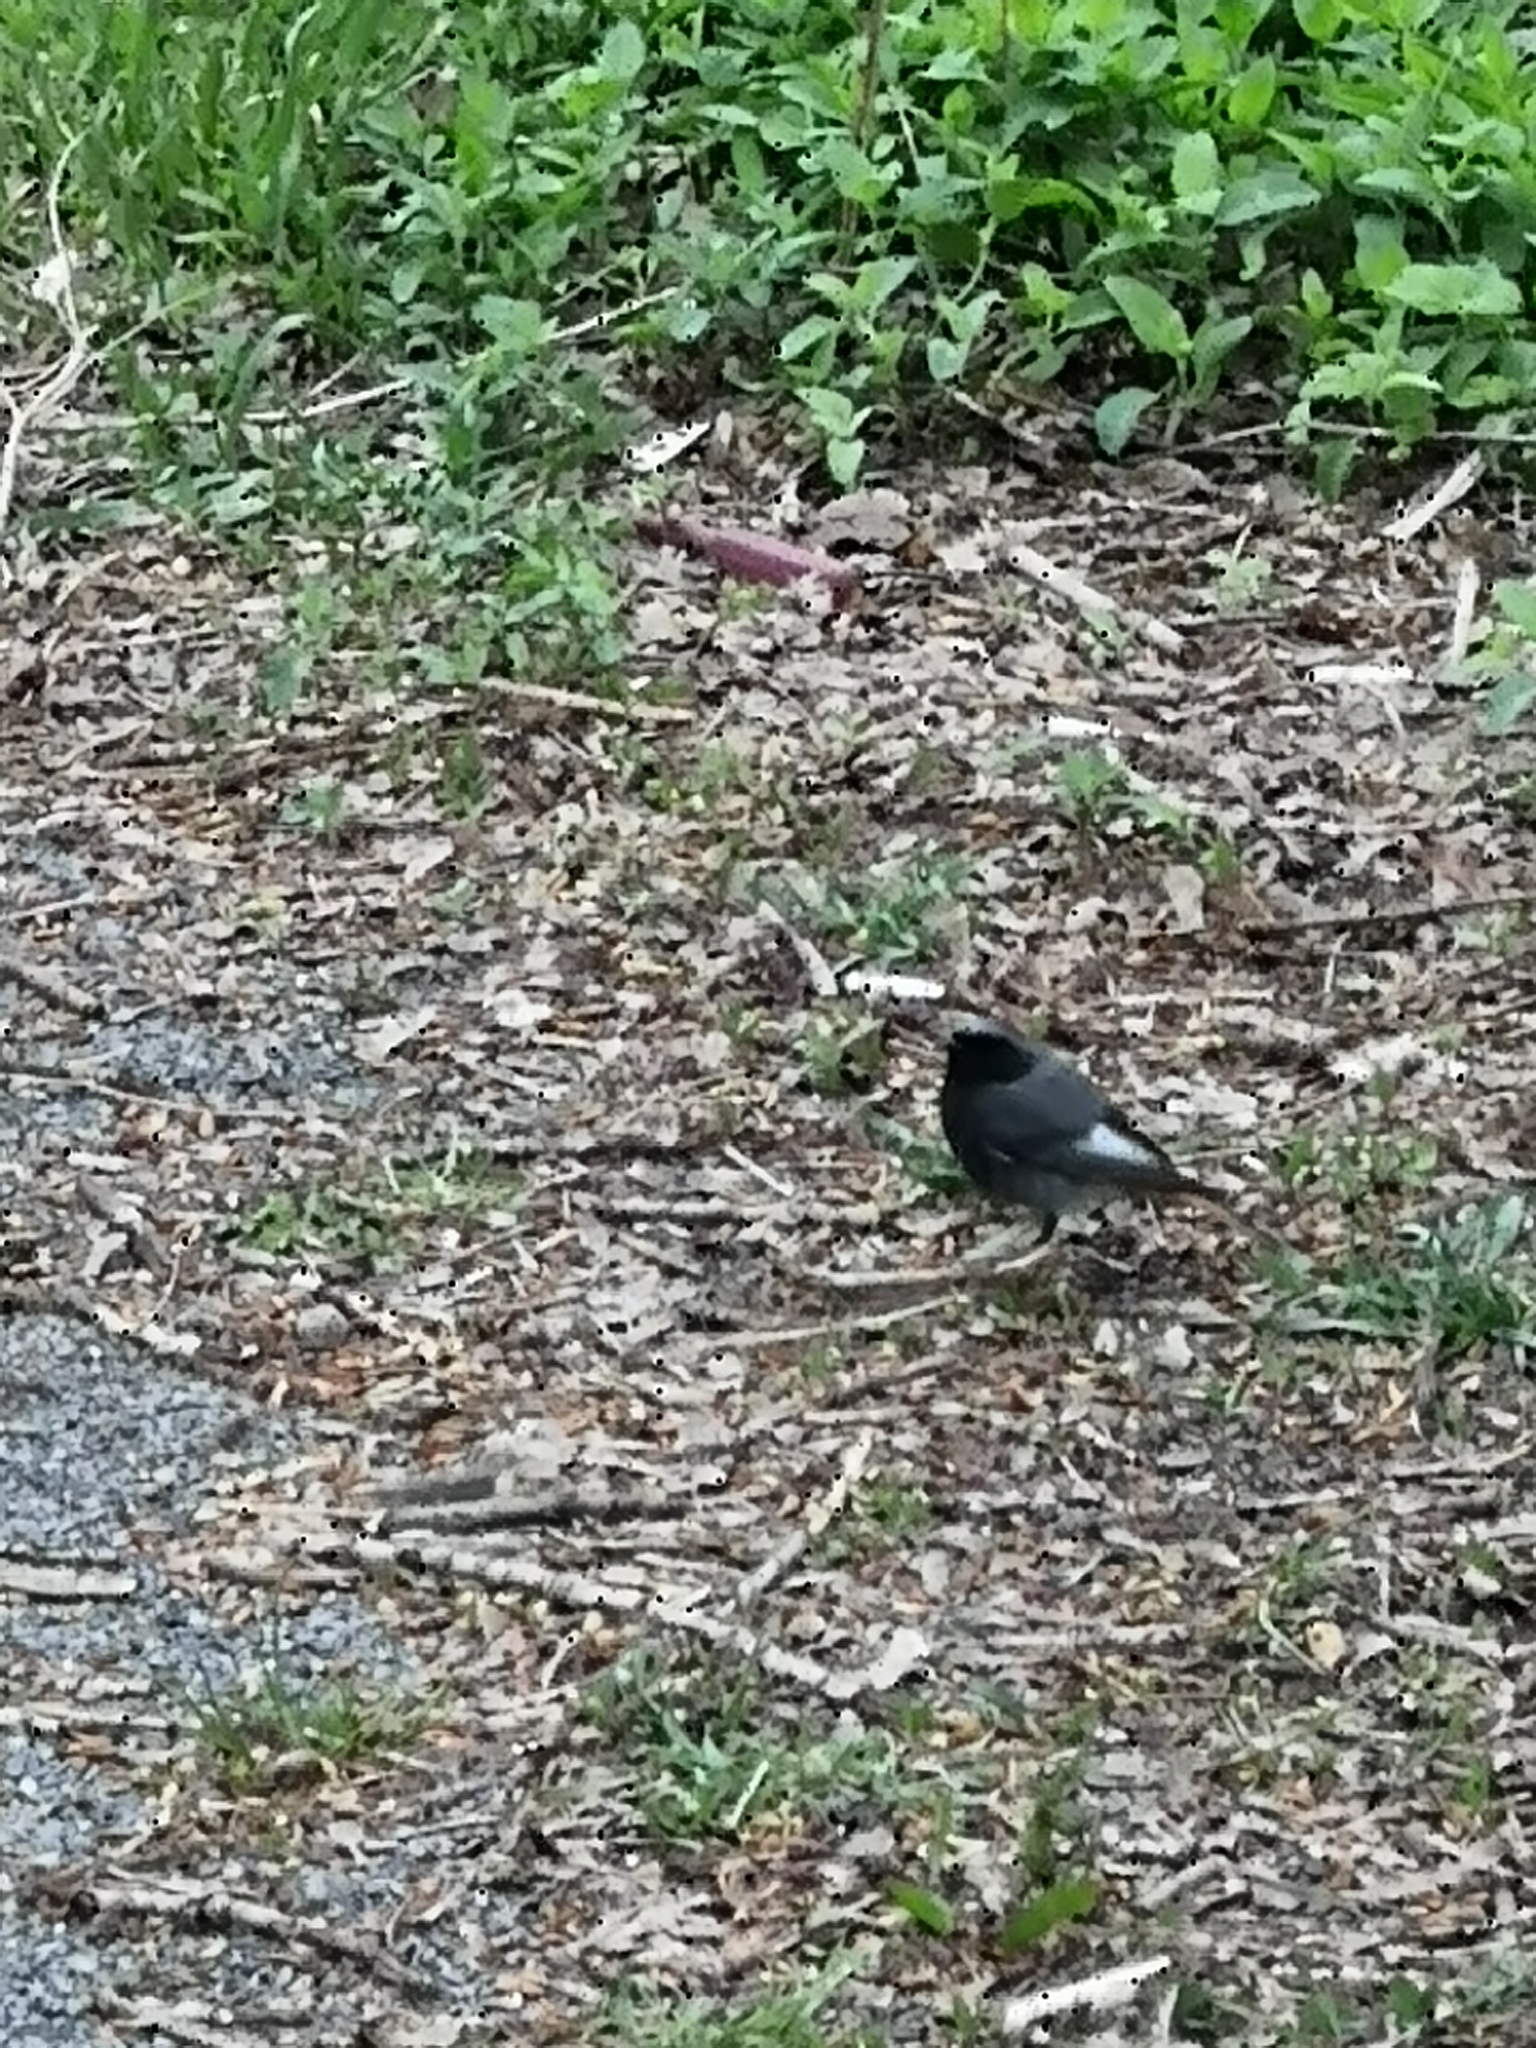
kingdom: Animalia
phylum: Chordata
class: Aves
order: Passeriformes
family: Muscicapidae
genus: Phoenicurus
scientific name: Phoenicurus ochruros
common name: Black redstart
